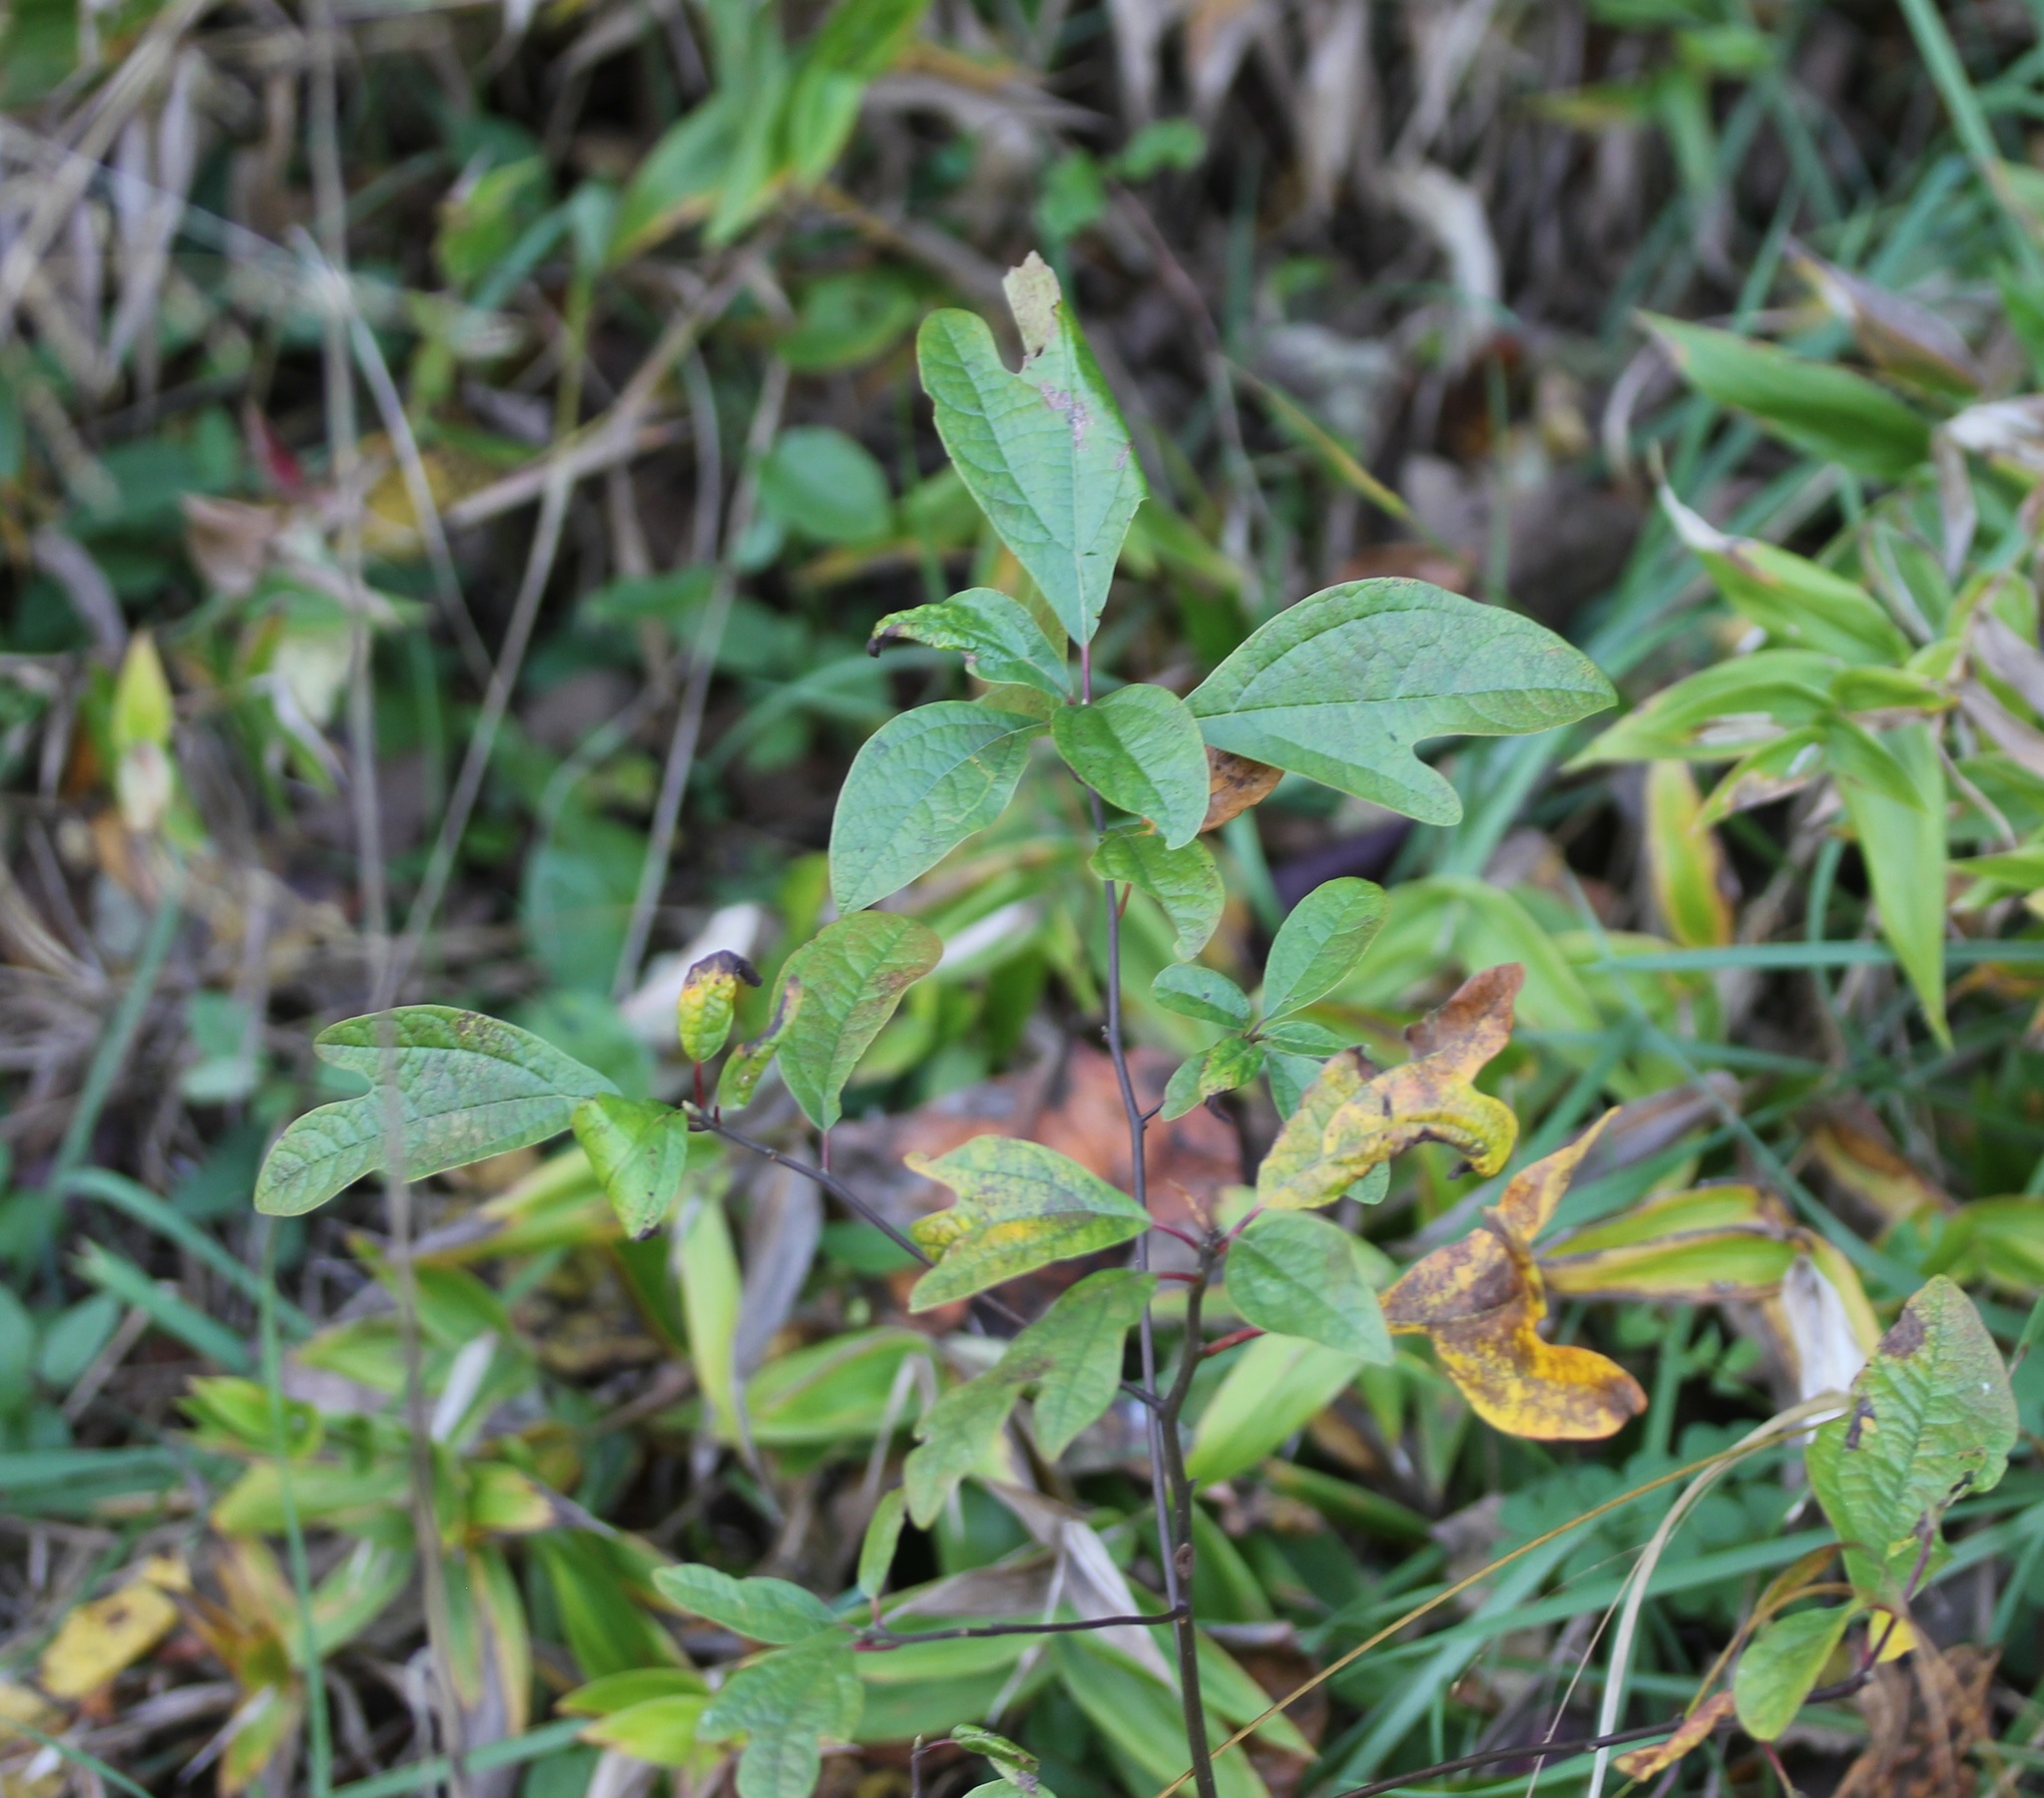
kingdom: Plantae
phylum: Tracheophyta
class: Magnoliopsida
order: Laurales
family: Lauraceae
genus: Sassafras
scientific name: Sassafras albidum
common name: Sassafras
